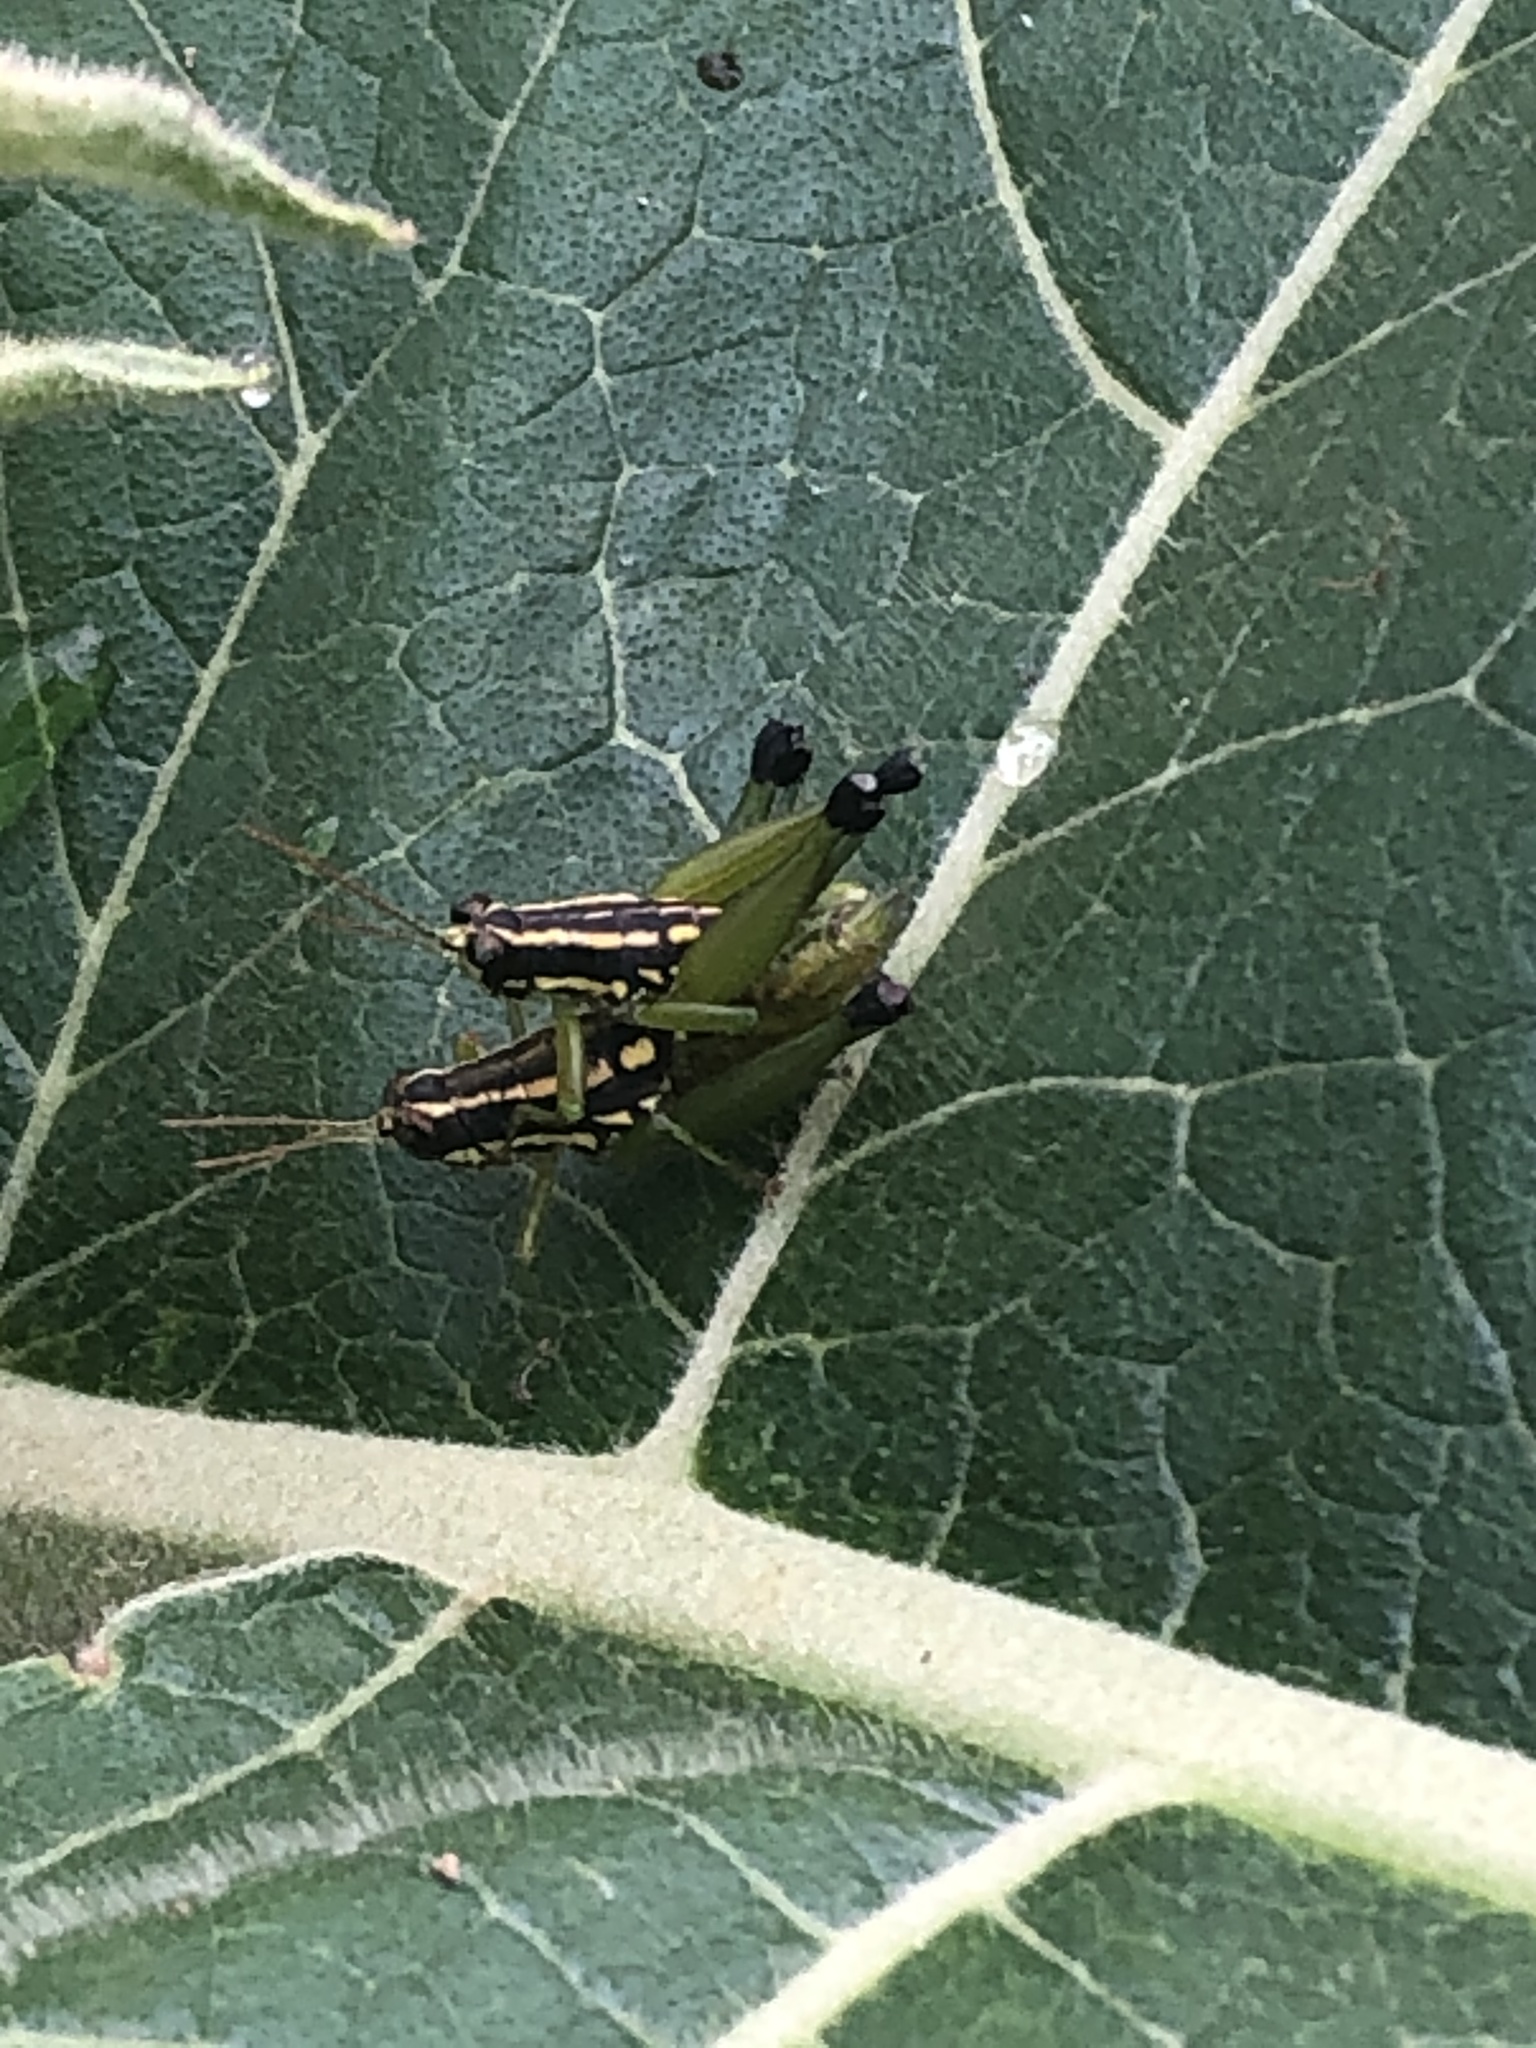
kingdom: Animalia
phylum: Arthropoda
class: Insecta
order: Orthoptera
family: Acrididae
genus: Eusitalces
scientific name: Eusitalces vittatus
